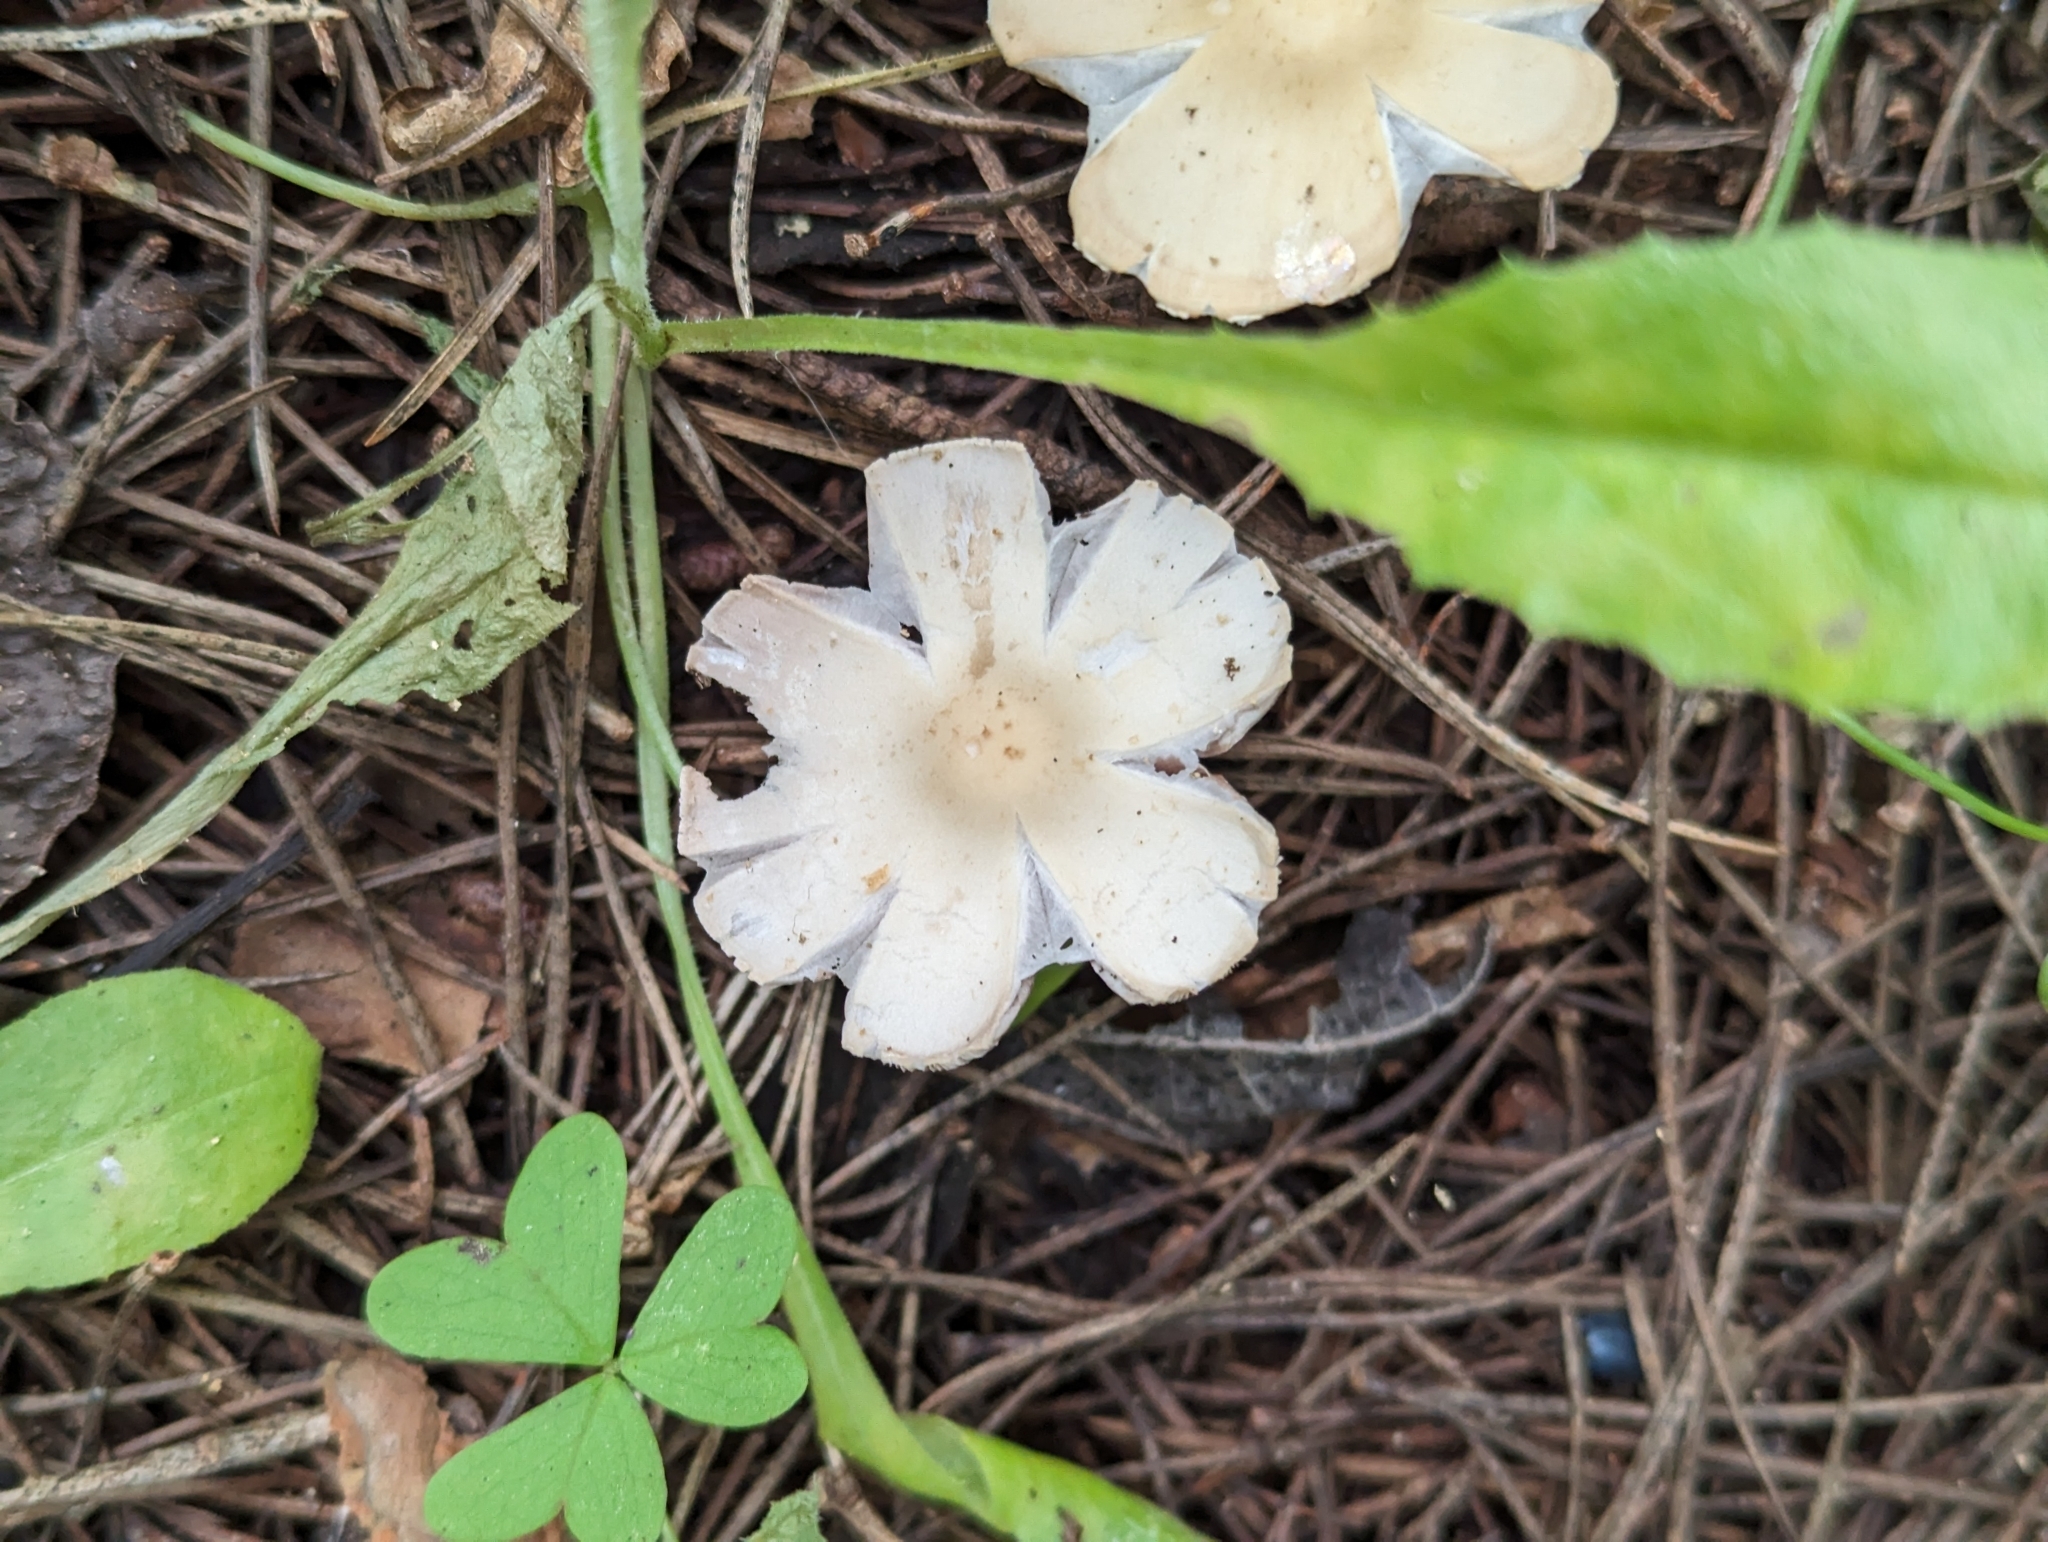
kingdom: Fungi
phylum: Basidiomycota
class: Agaricomycetes
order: Agaricales
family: Psathyrellaceae
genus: Candolleomyces
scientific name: Candolleomyces candolleanus
